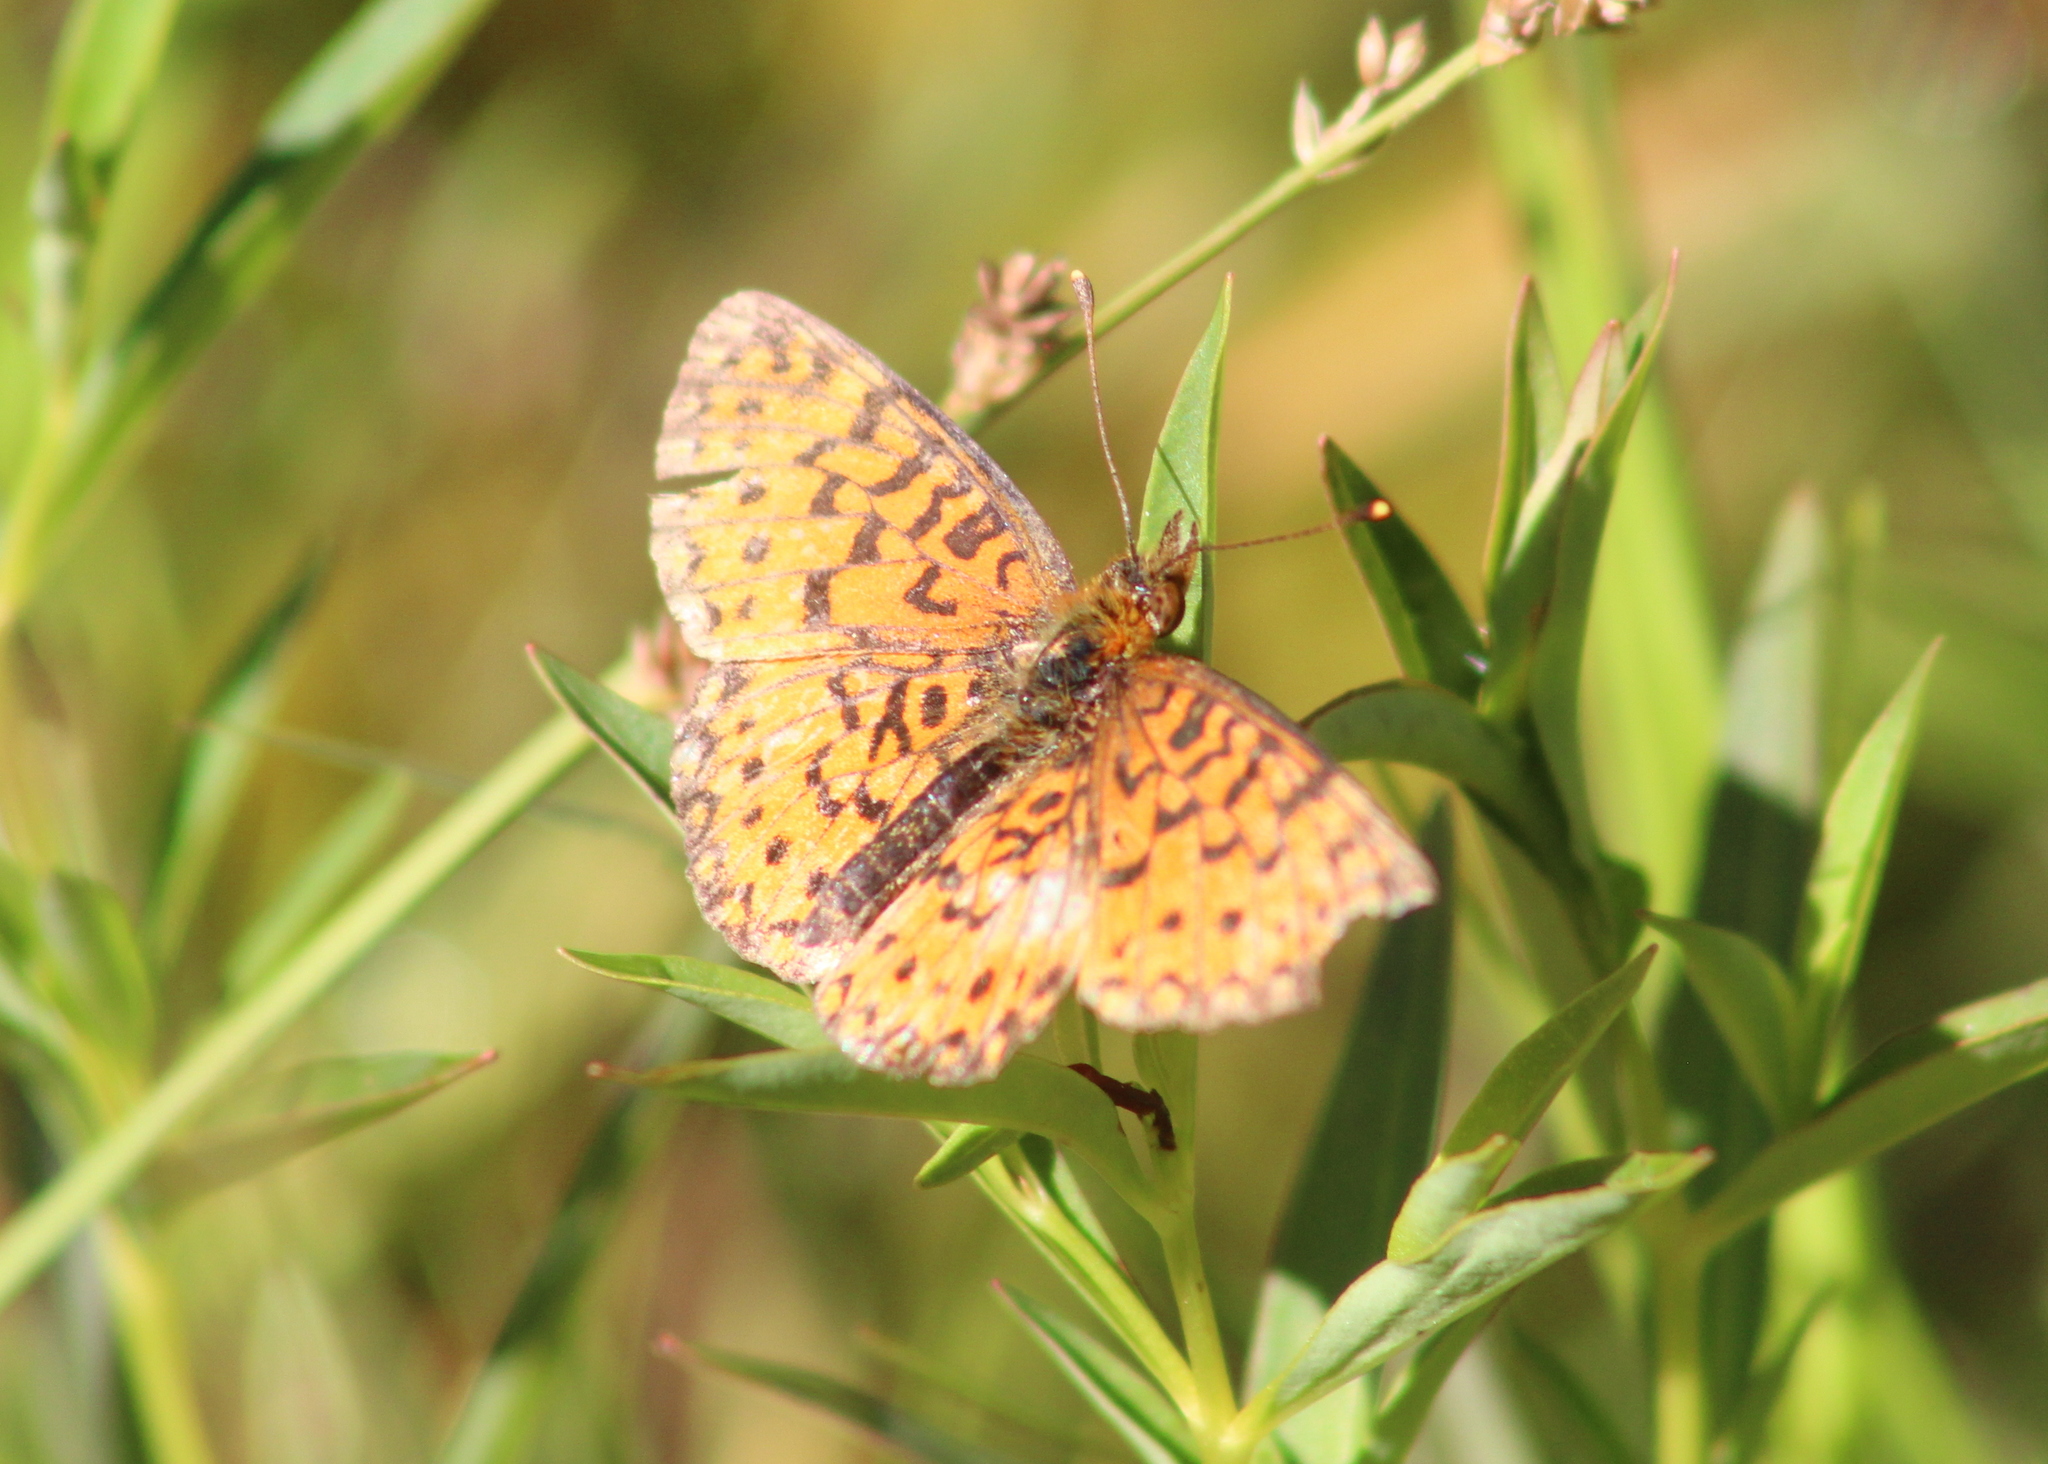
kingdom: Animalia
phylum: Arthropoda
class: Insecta
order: Lepidoptera
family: Nymphalidae
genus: Boloria
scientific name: Boloria
